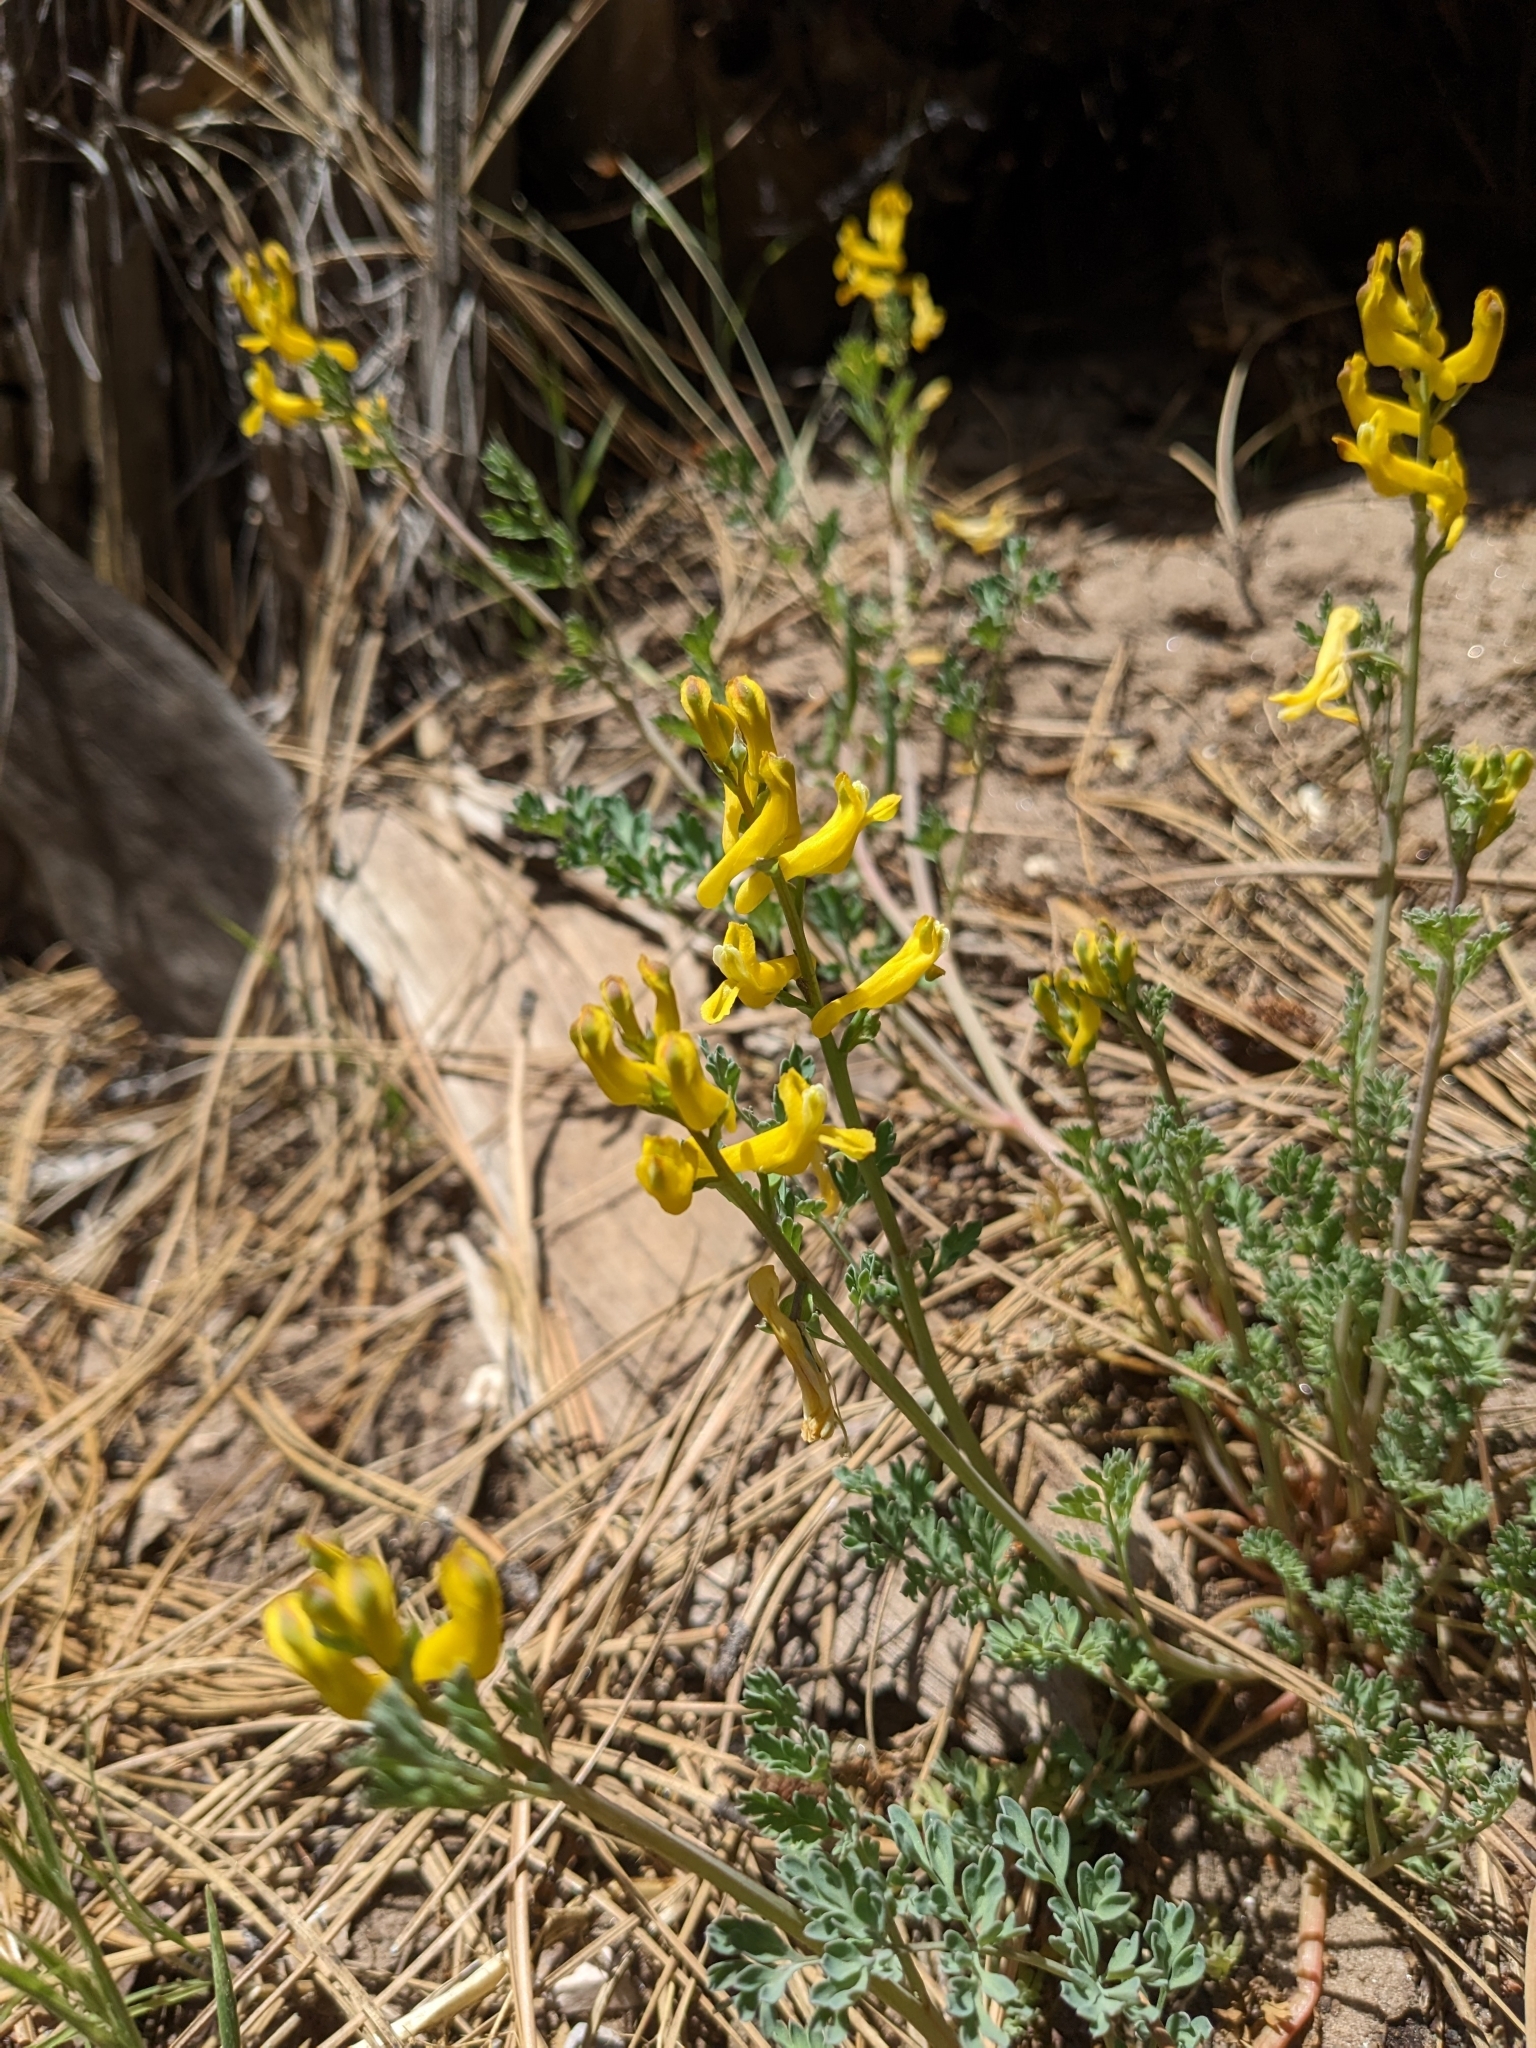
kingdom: Plantae
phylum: Tracheophyta
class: Magnoliopsida
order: Ranunculales
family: Papaveraceae
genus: Corydalis
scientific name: Corydalis aurea
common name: Golden corydalis
